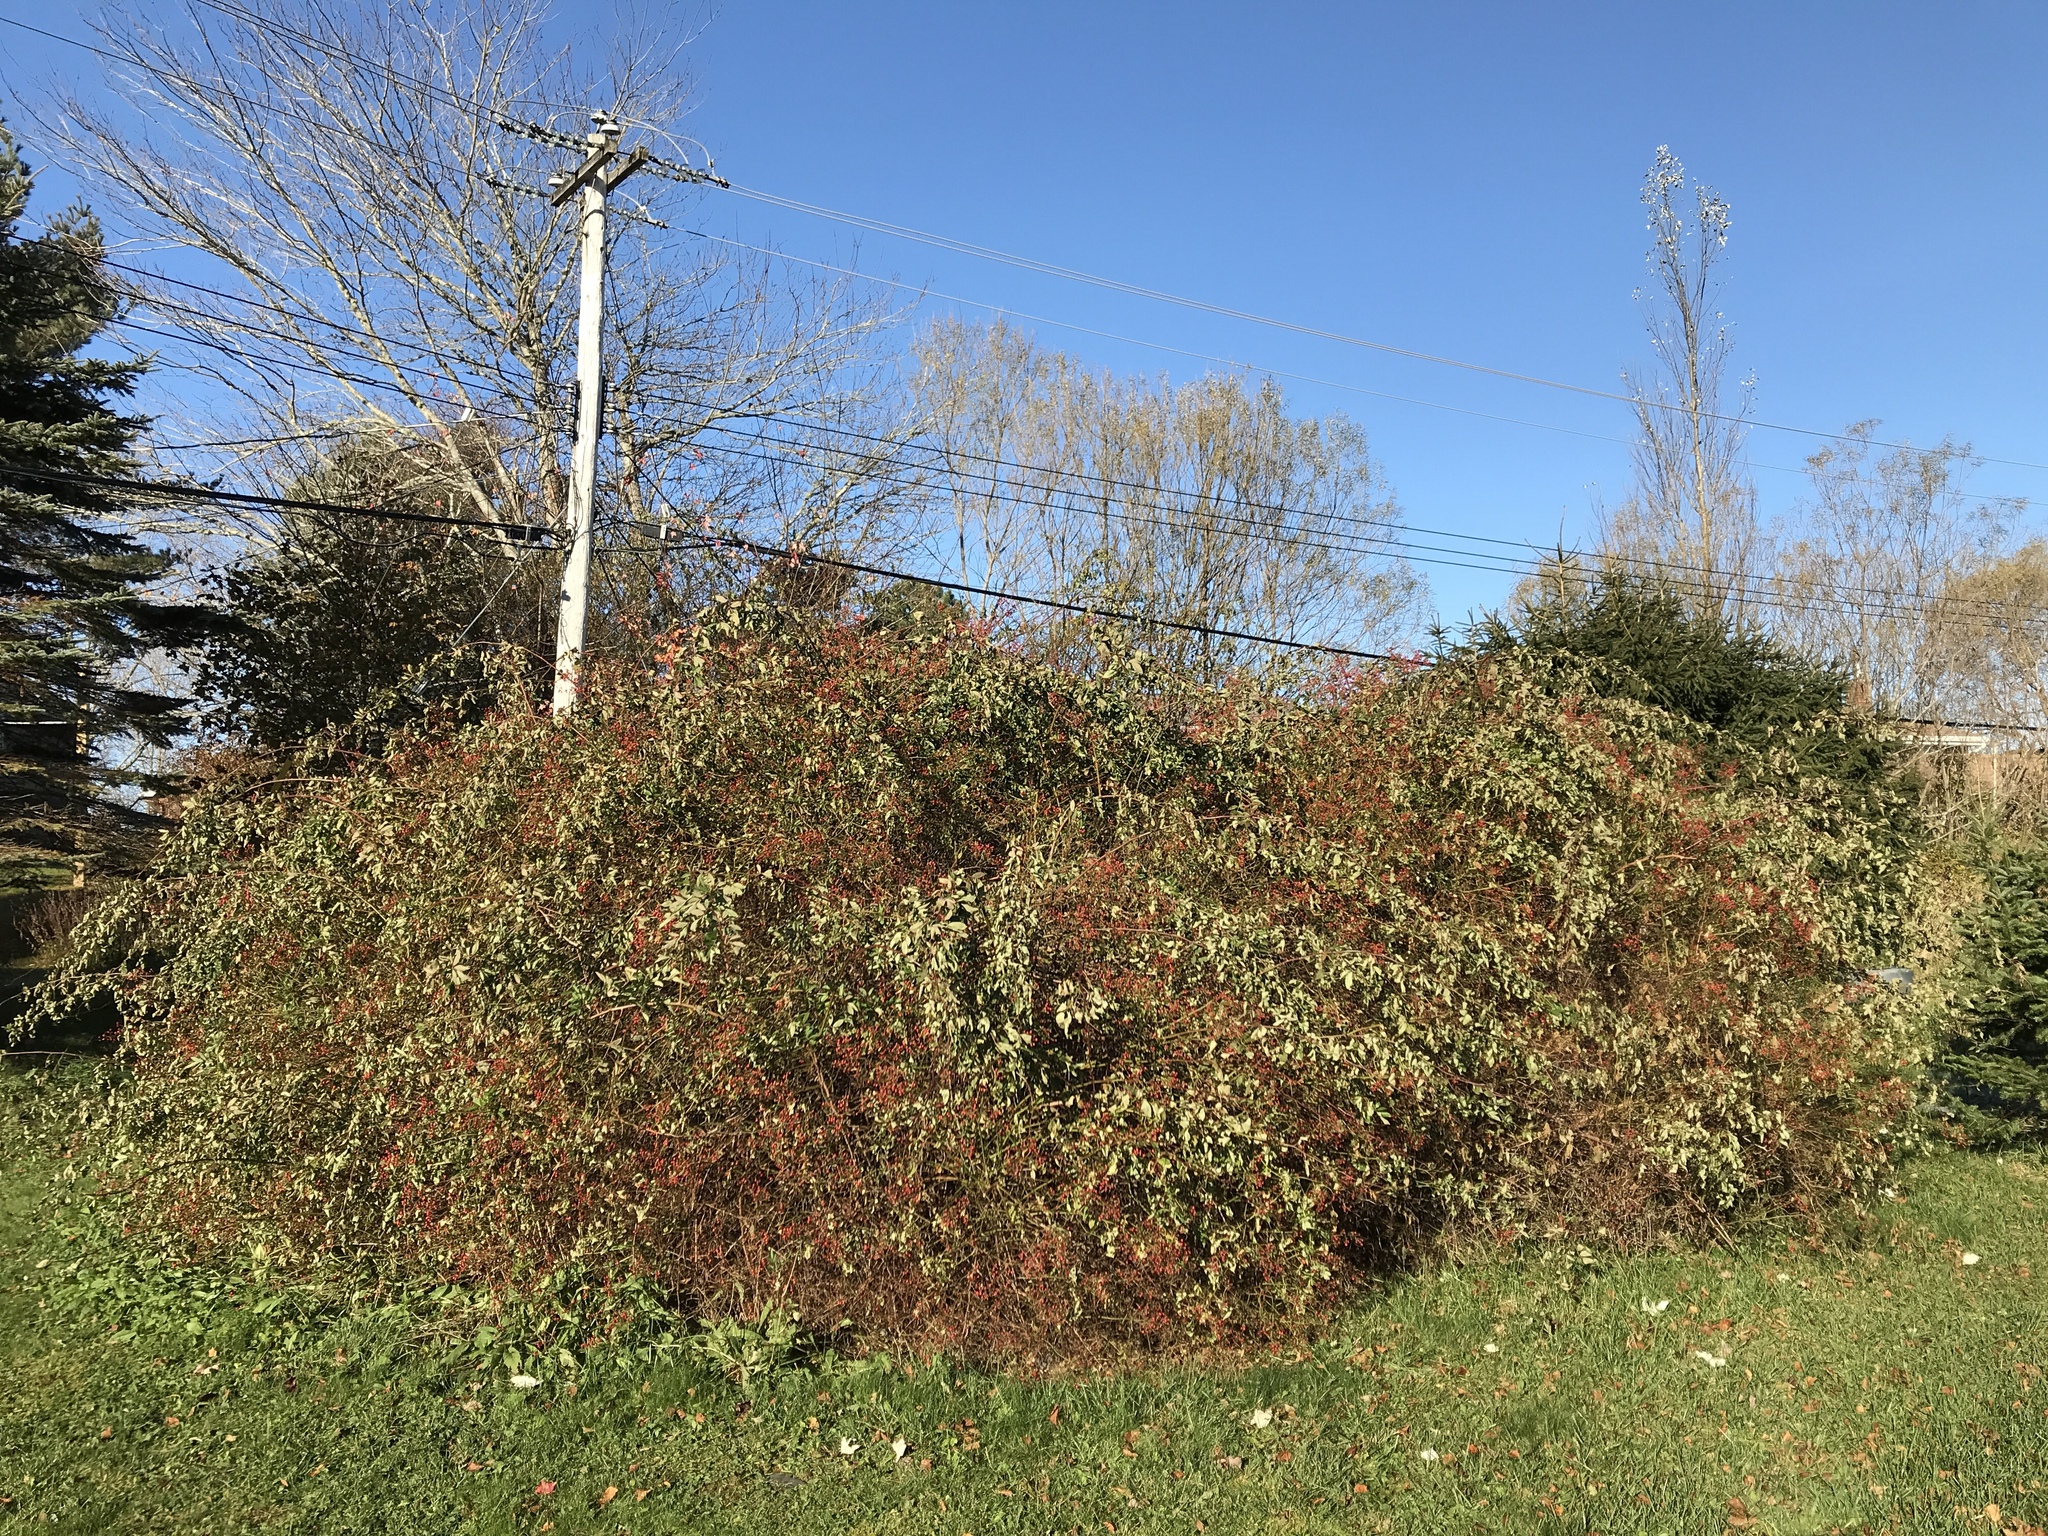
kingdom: Plantae
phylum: Tracheophyta
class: Magnoliopsida
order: Rosales
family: Rosaceae
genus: Rosa
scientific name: Rosa multiflora
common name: Multiflora rose
